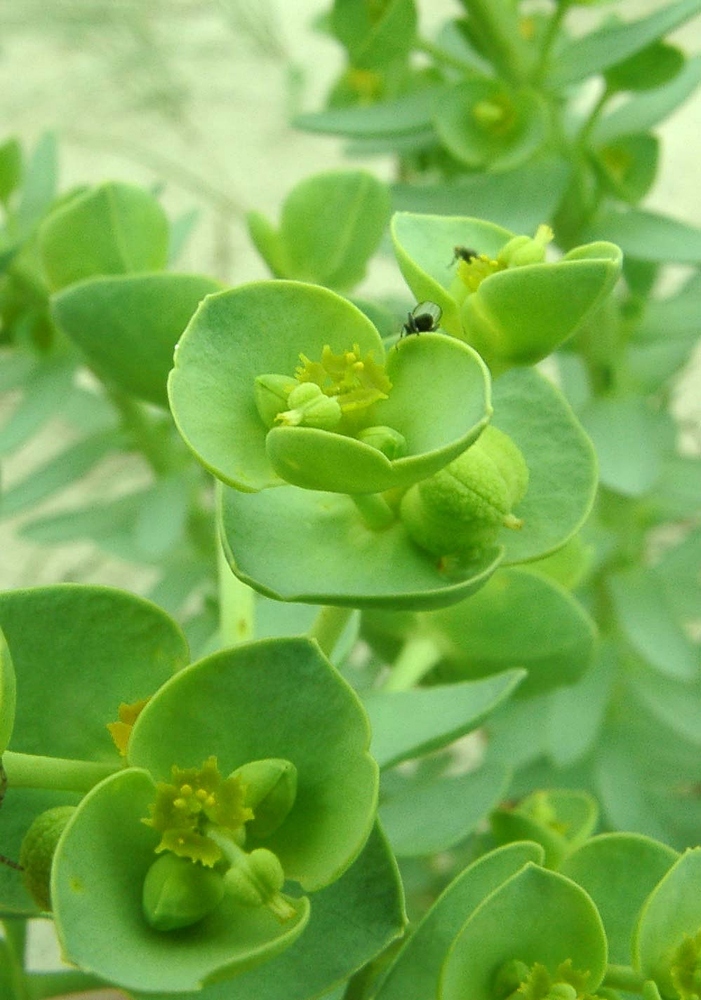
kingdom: Plantae
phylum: Tracheophyta
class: Magnoliopsida
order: Malpighiales
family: Euphorbiaceae
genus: Euphorbia
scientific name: Euphorbia paralias
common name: Sea spurge
